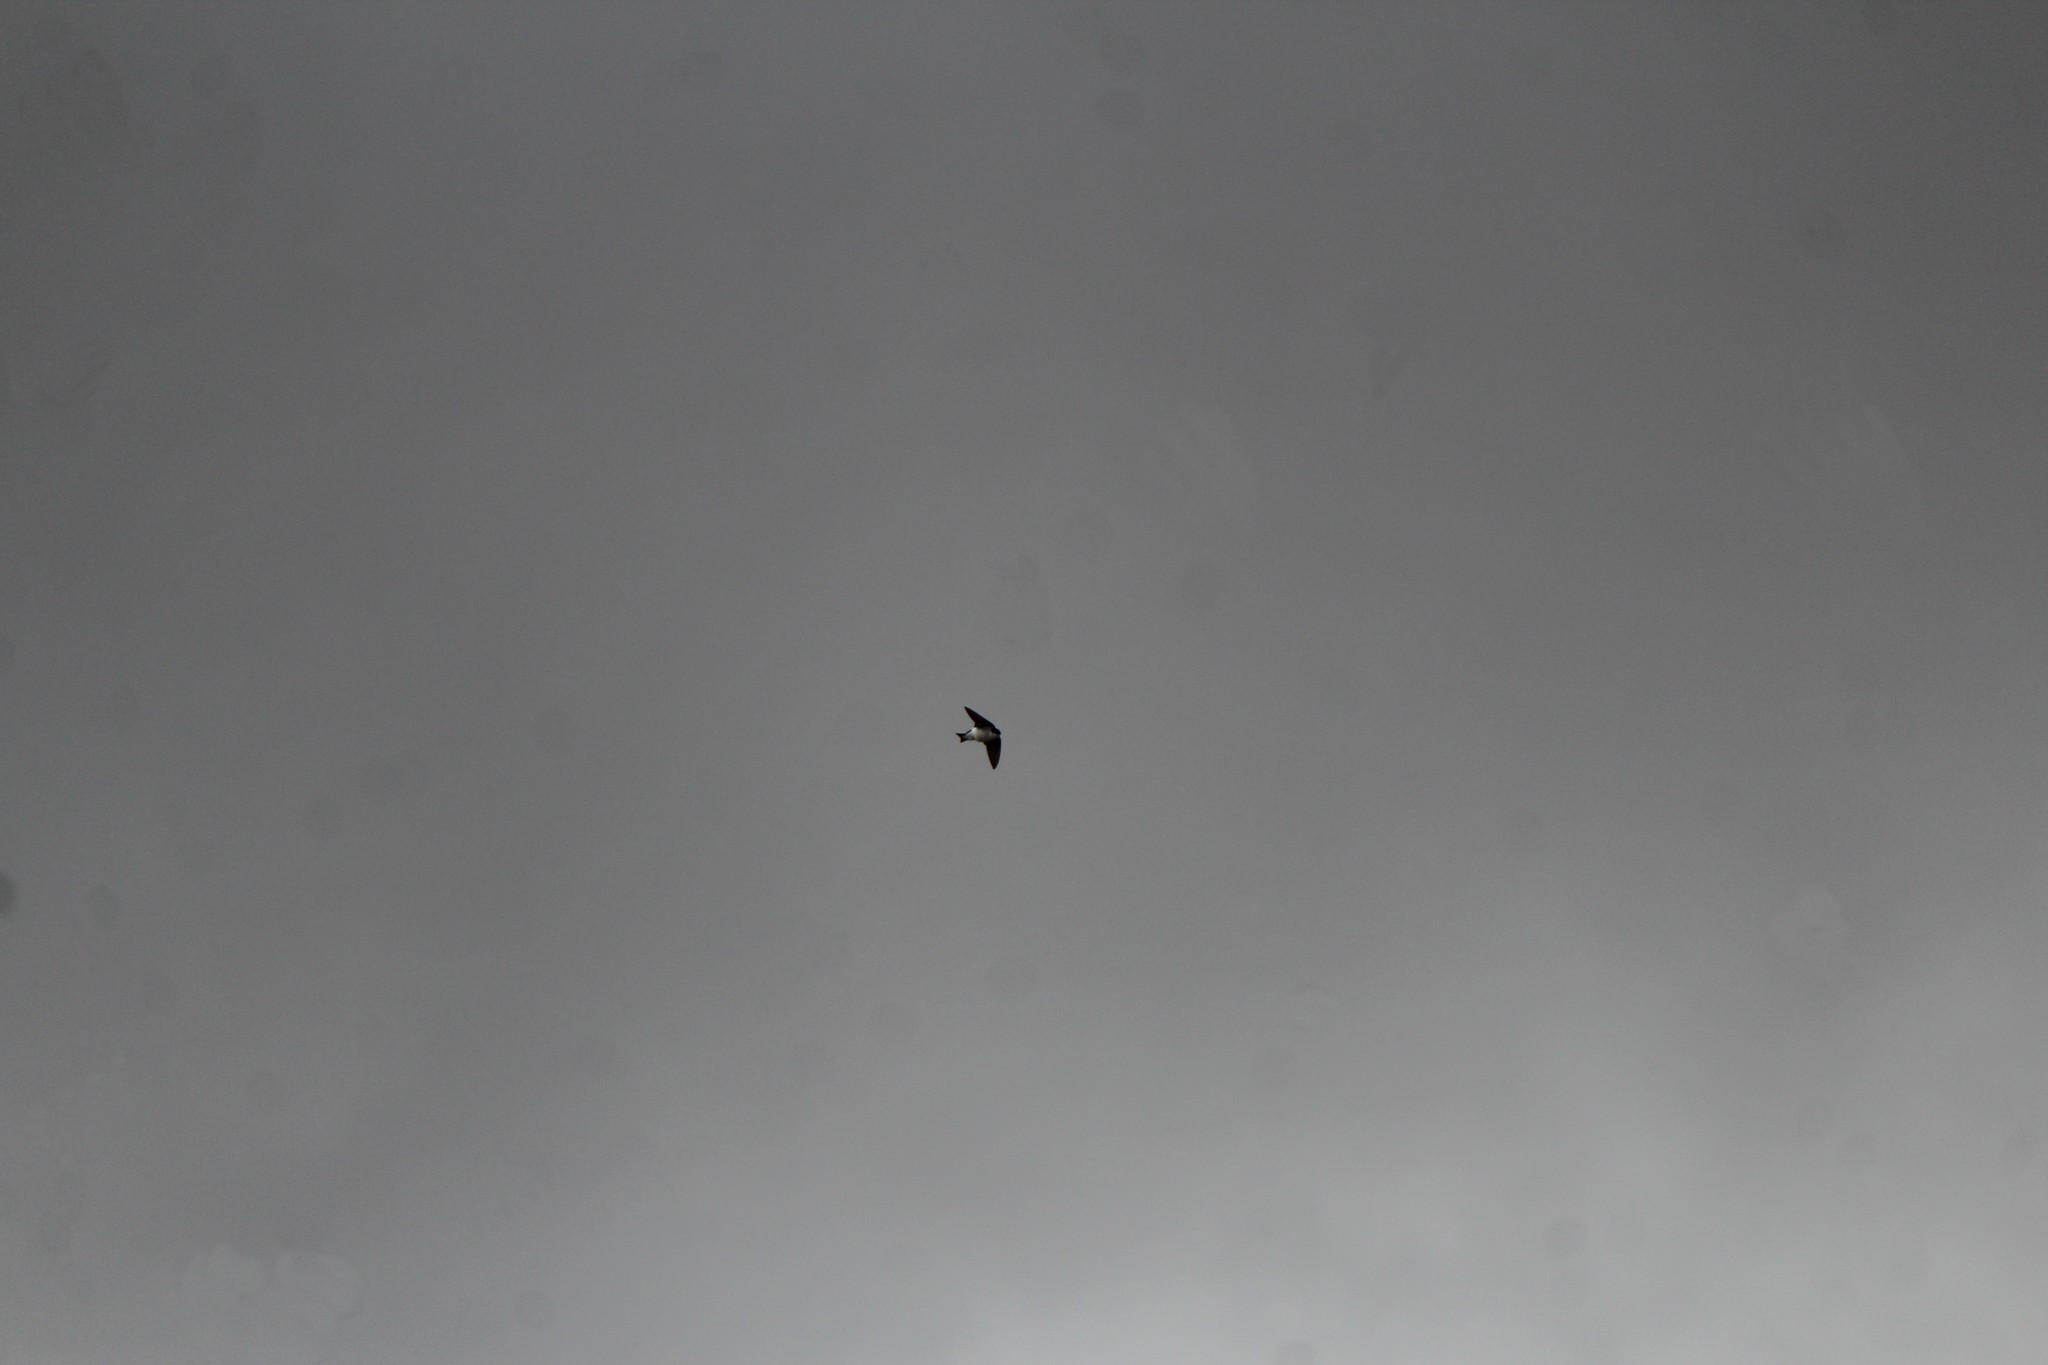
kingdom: Animalia
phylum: Chordata
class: Aves
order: Passeriformes
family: Hirundinidae
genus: Tachycineta
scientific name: Tachycineta thalassina
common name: Violet-green swallow
